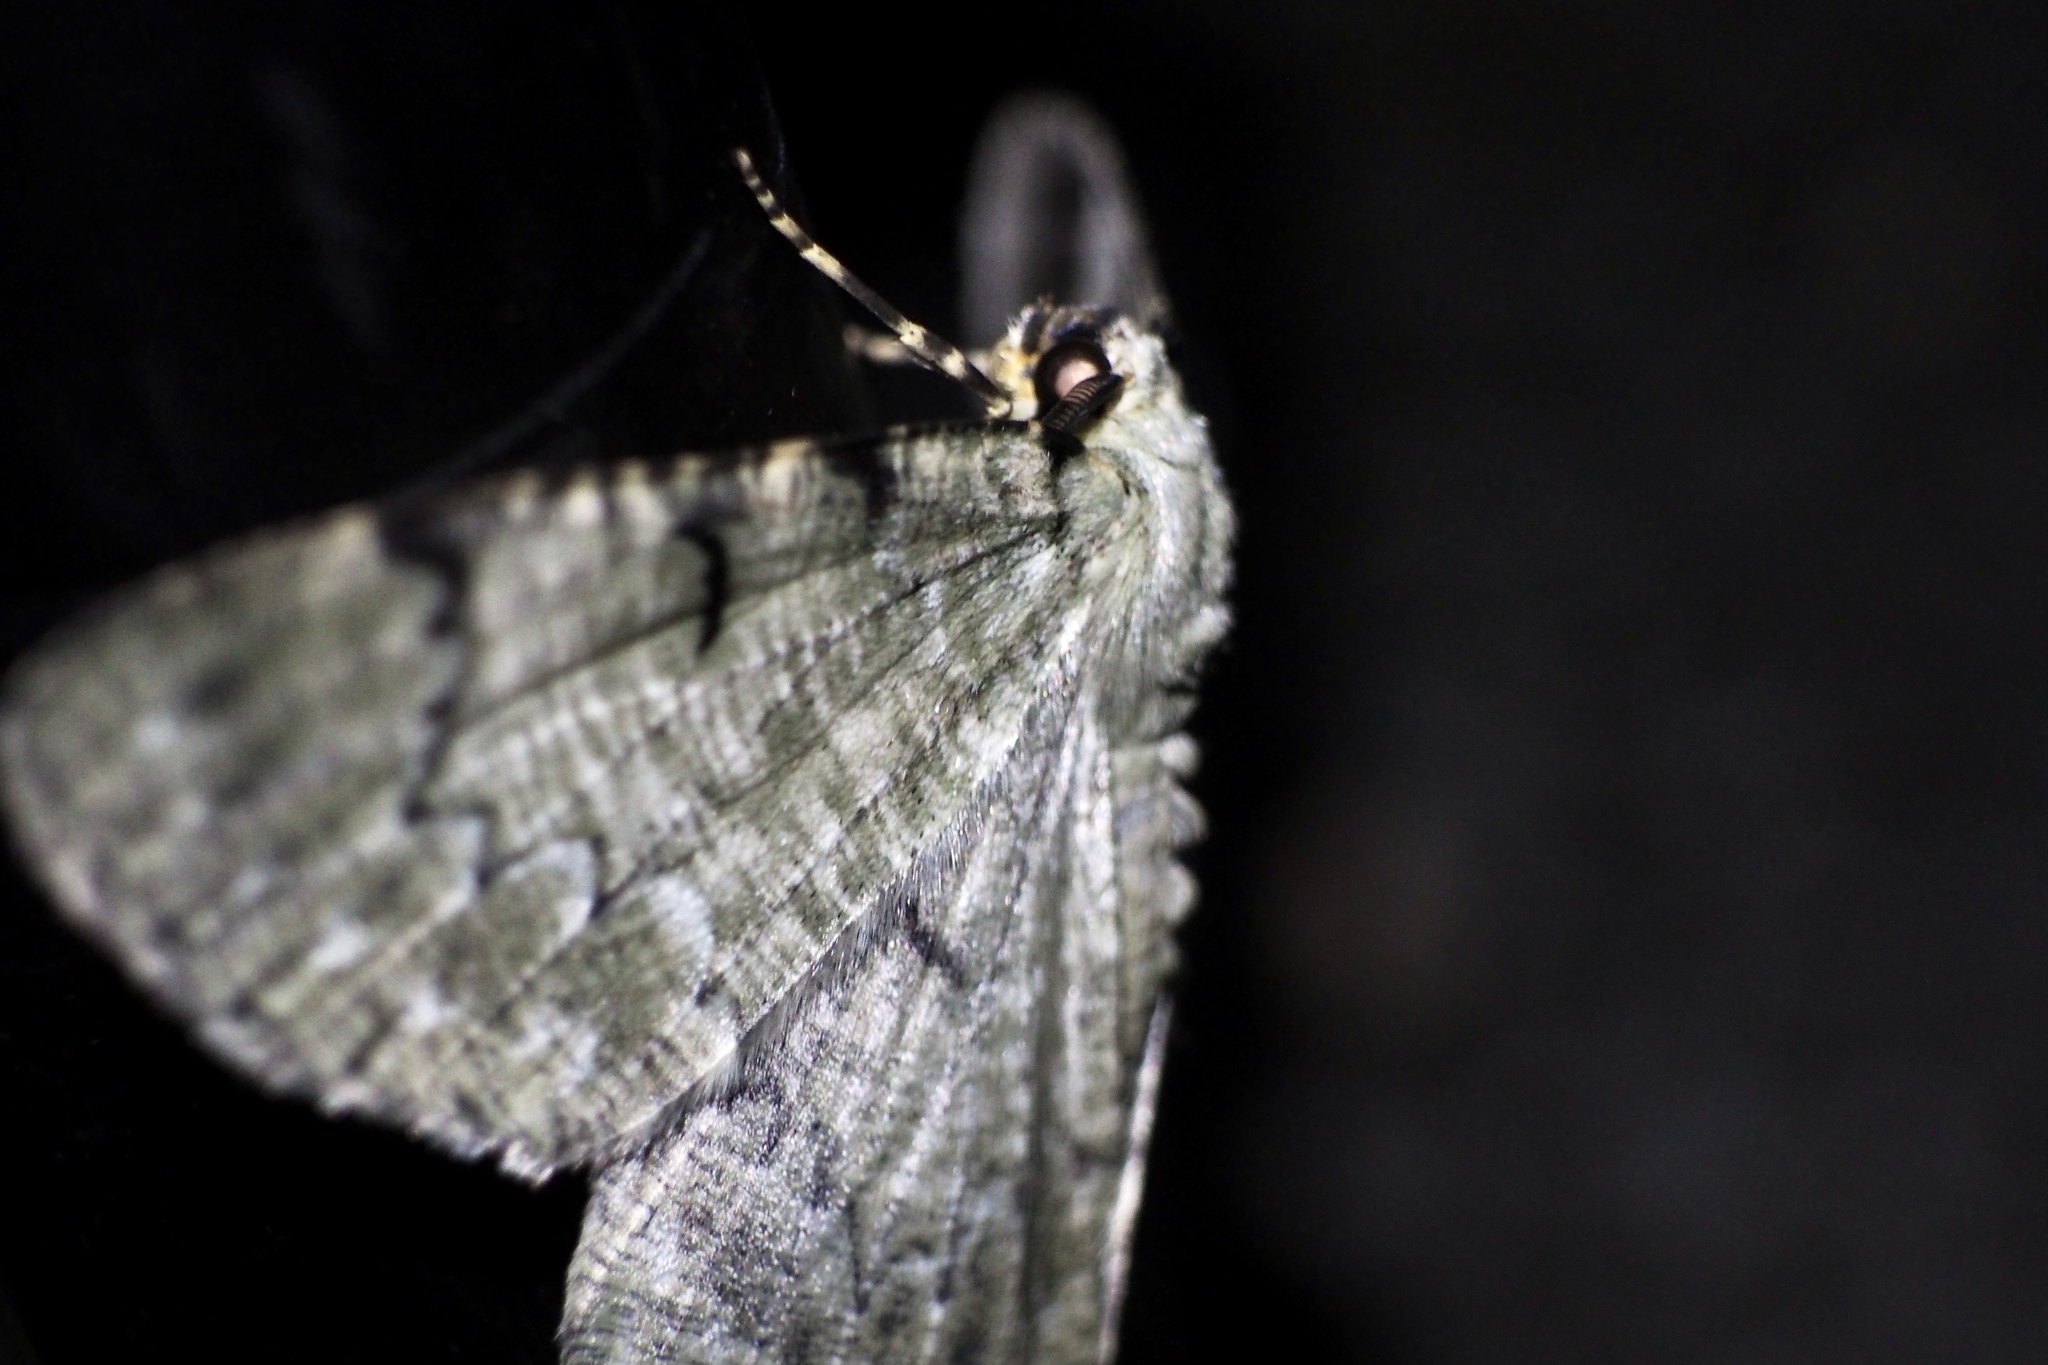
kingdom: Animalia
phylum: Arthropoda
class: Insecta
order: Lepidoptera
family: Geometridae
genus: Pachista
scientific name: Pachista superans
